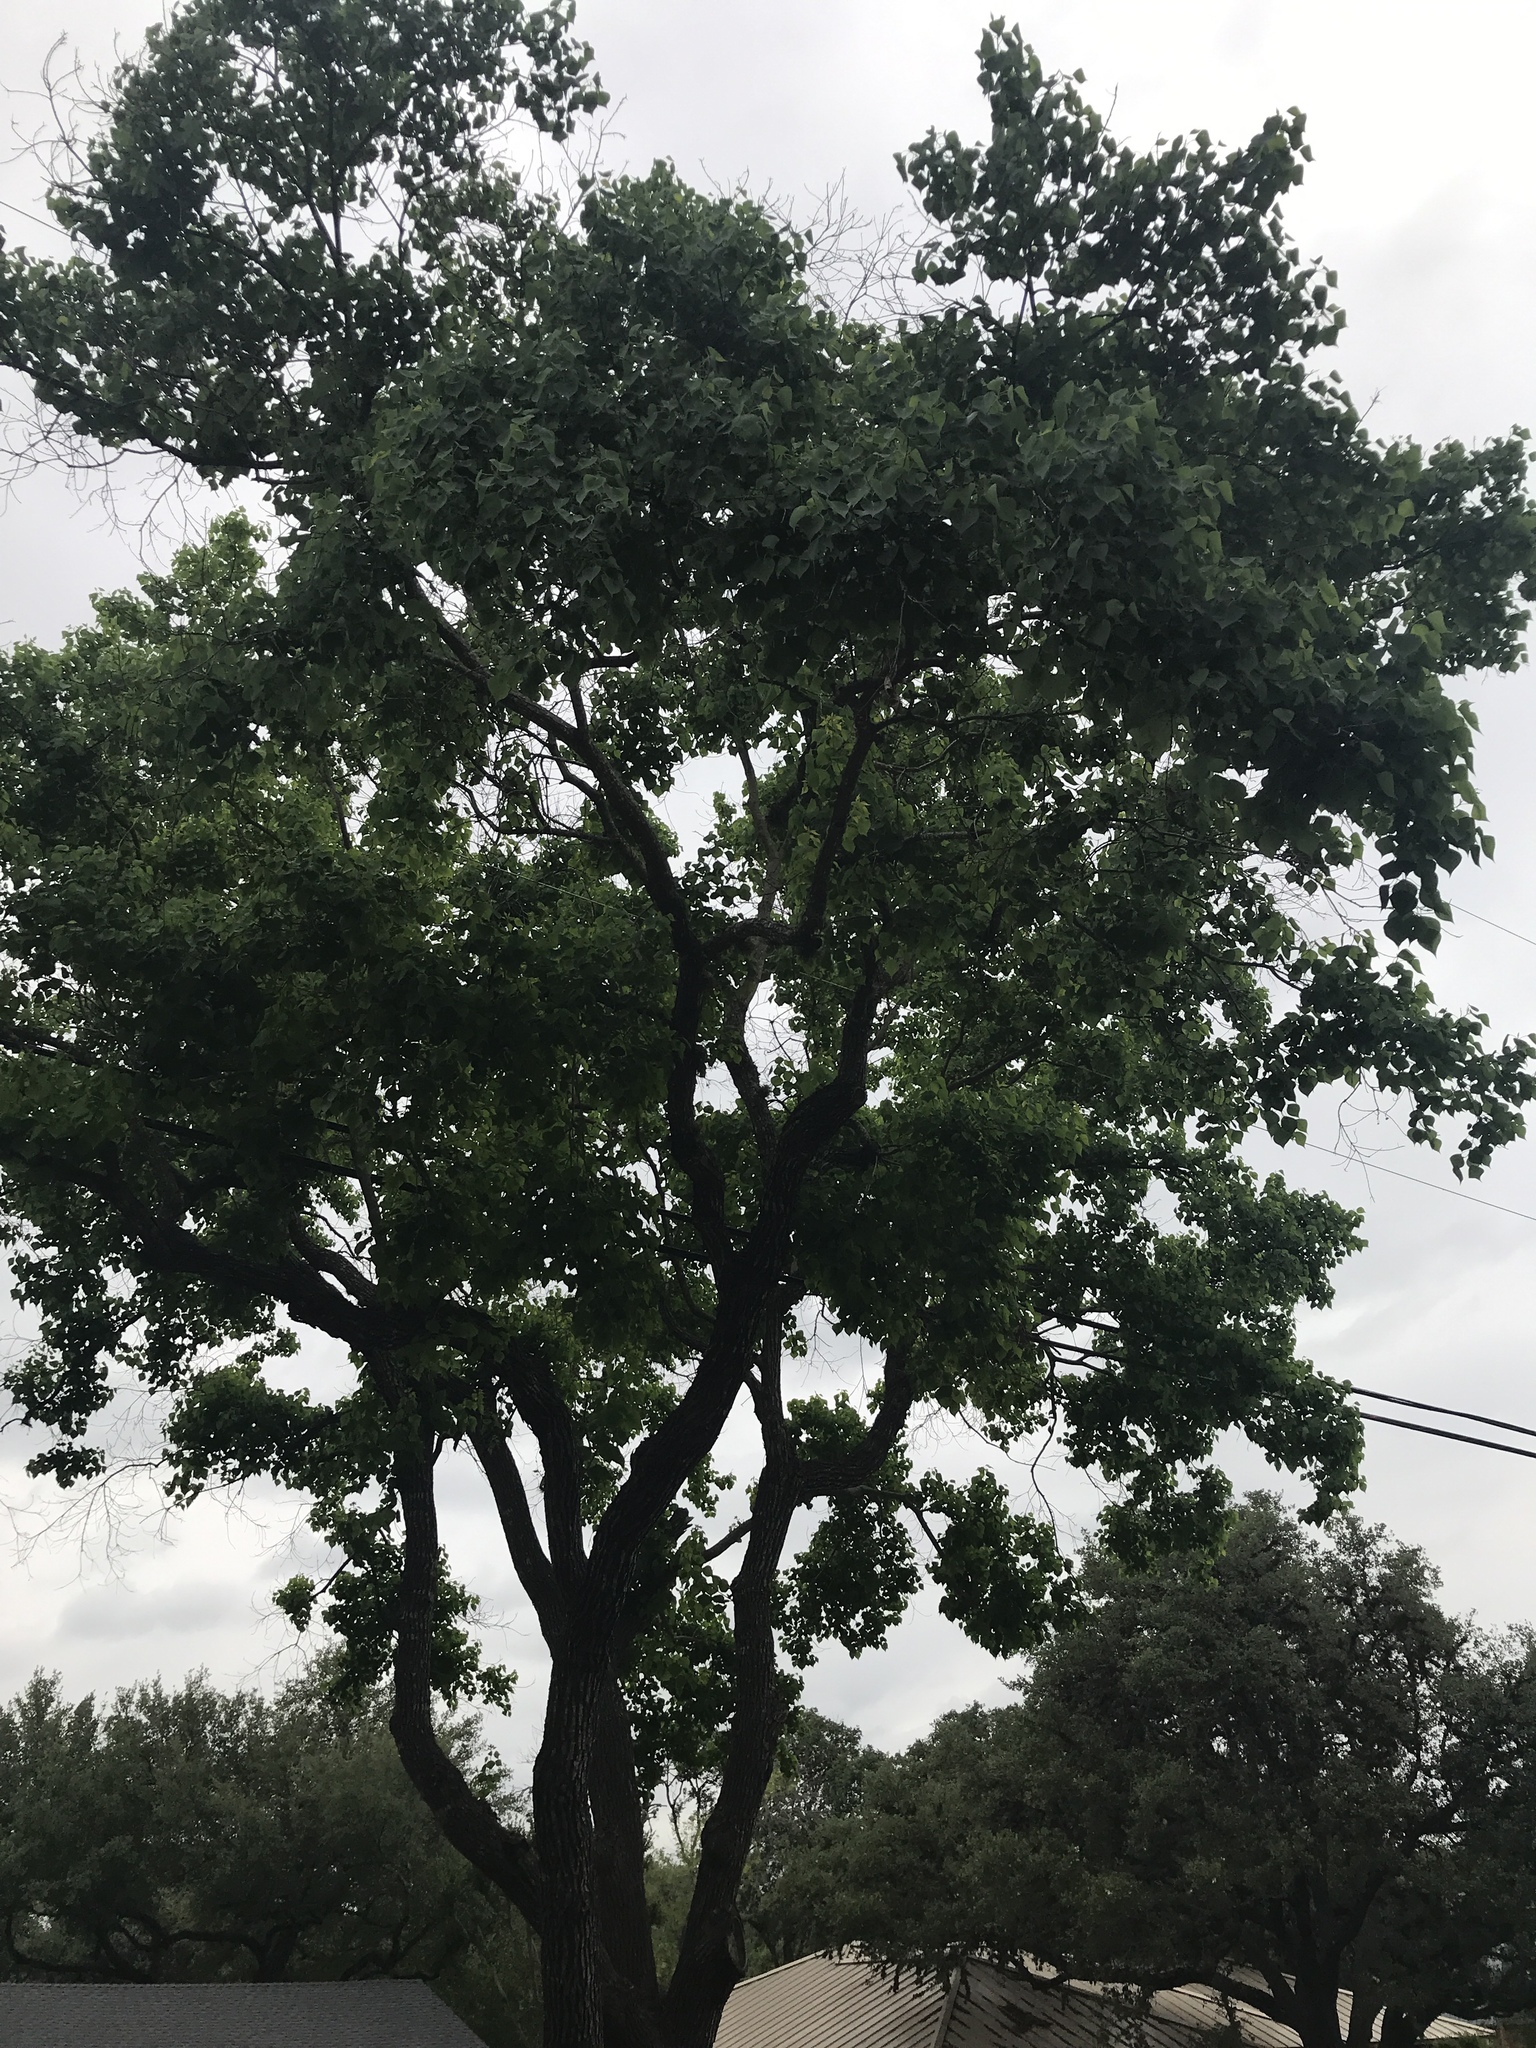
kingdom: Plantae
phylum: Tracheophyta
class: Magnoliopsida
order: Malpighiales
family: Euphorbiaceae
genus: Triadica
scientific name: Triadica sebifera
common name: Chinese tallow
